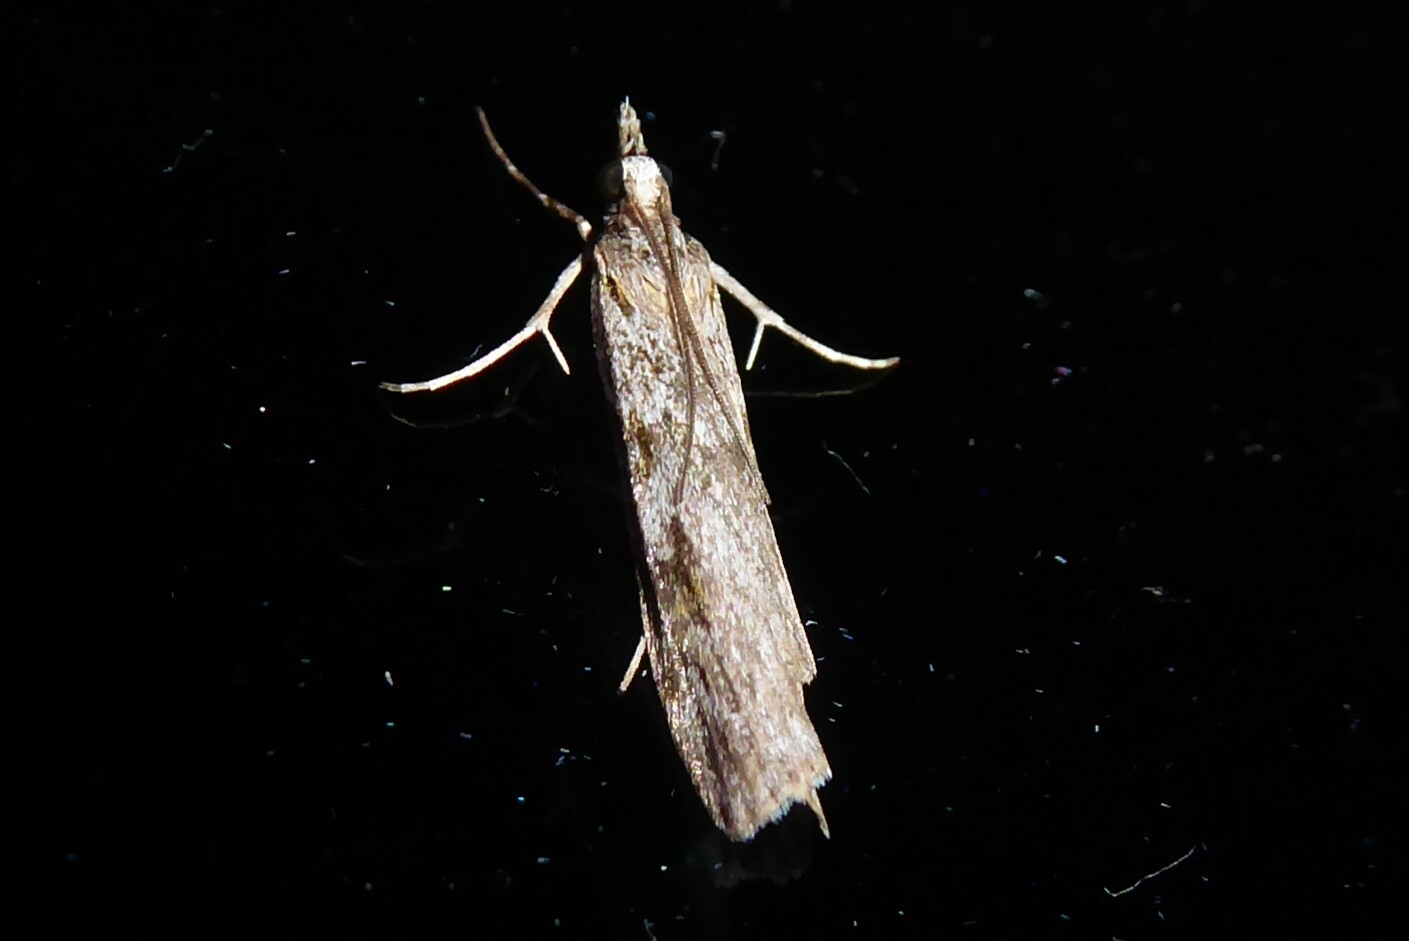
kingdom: Animalia
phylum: Arthropoda
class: Insecta
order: Lepidoptera
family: Crambidae
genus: Scoparia
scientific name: Scoparia halopis
